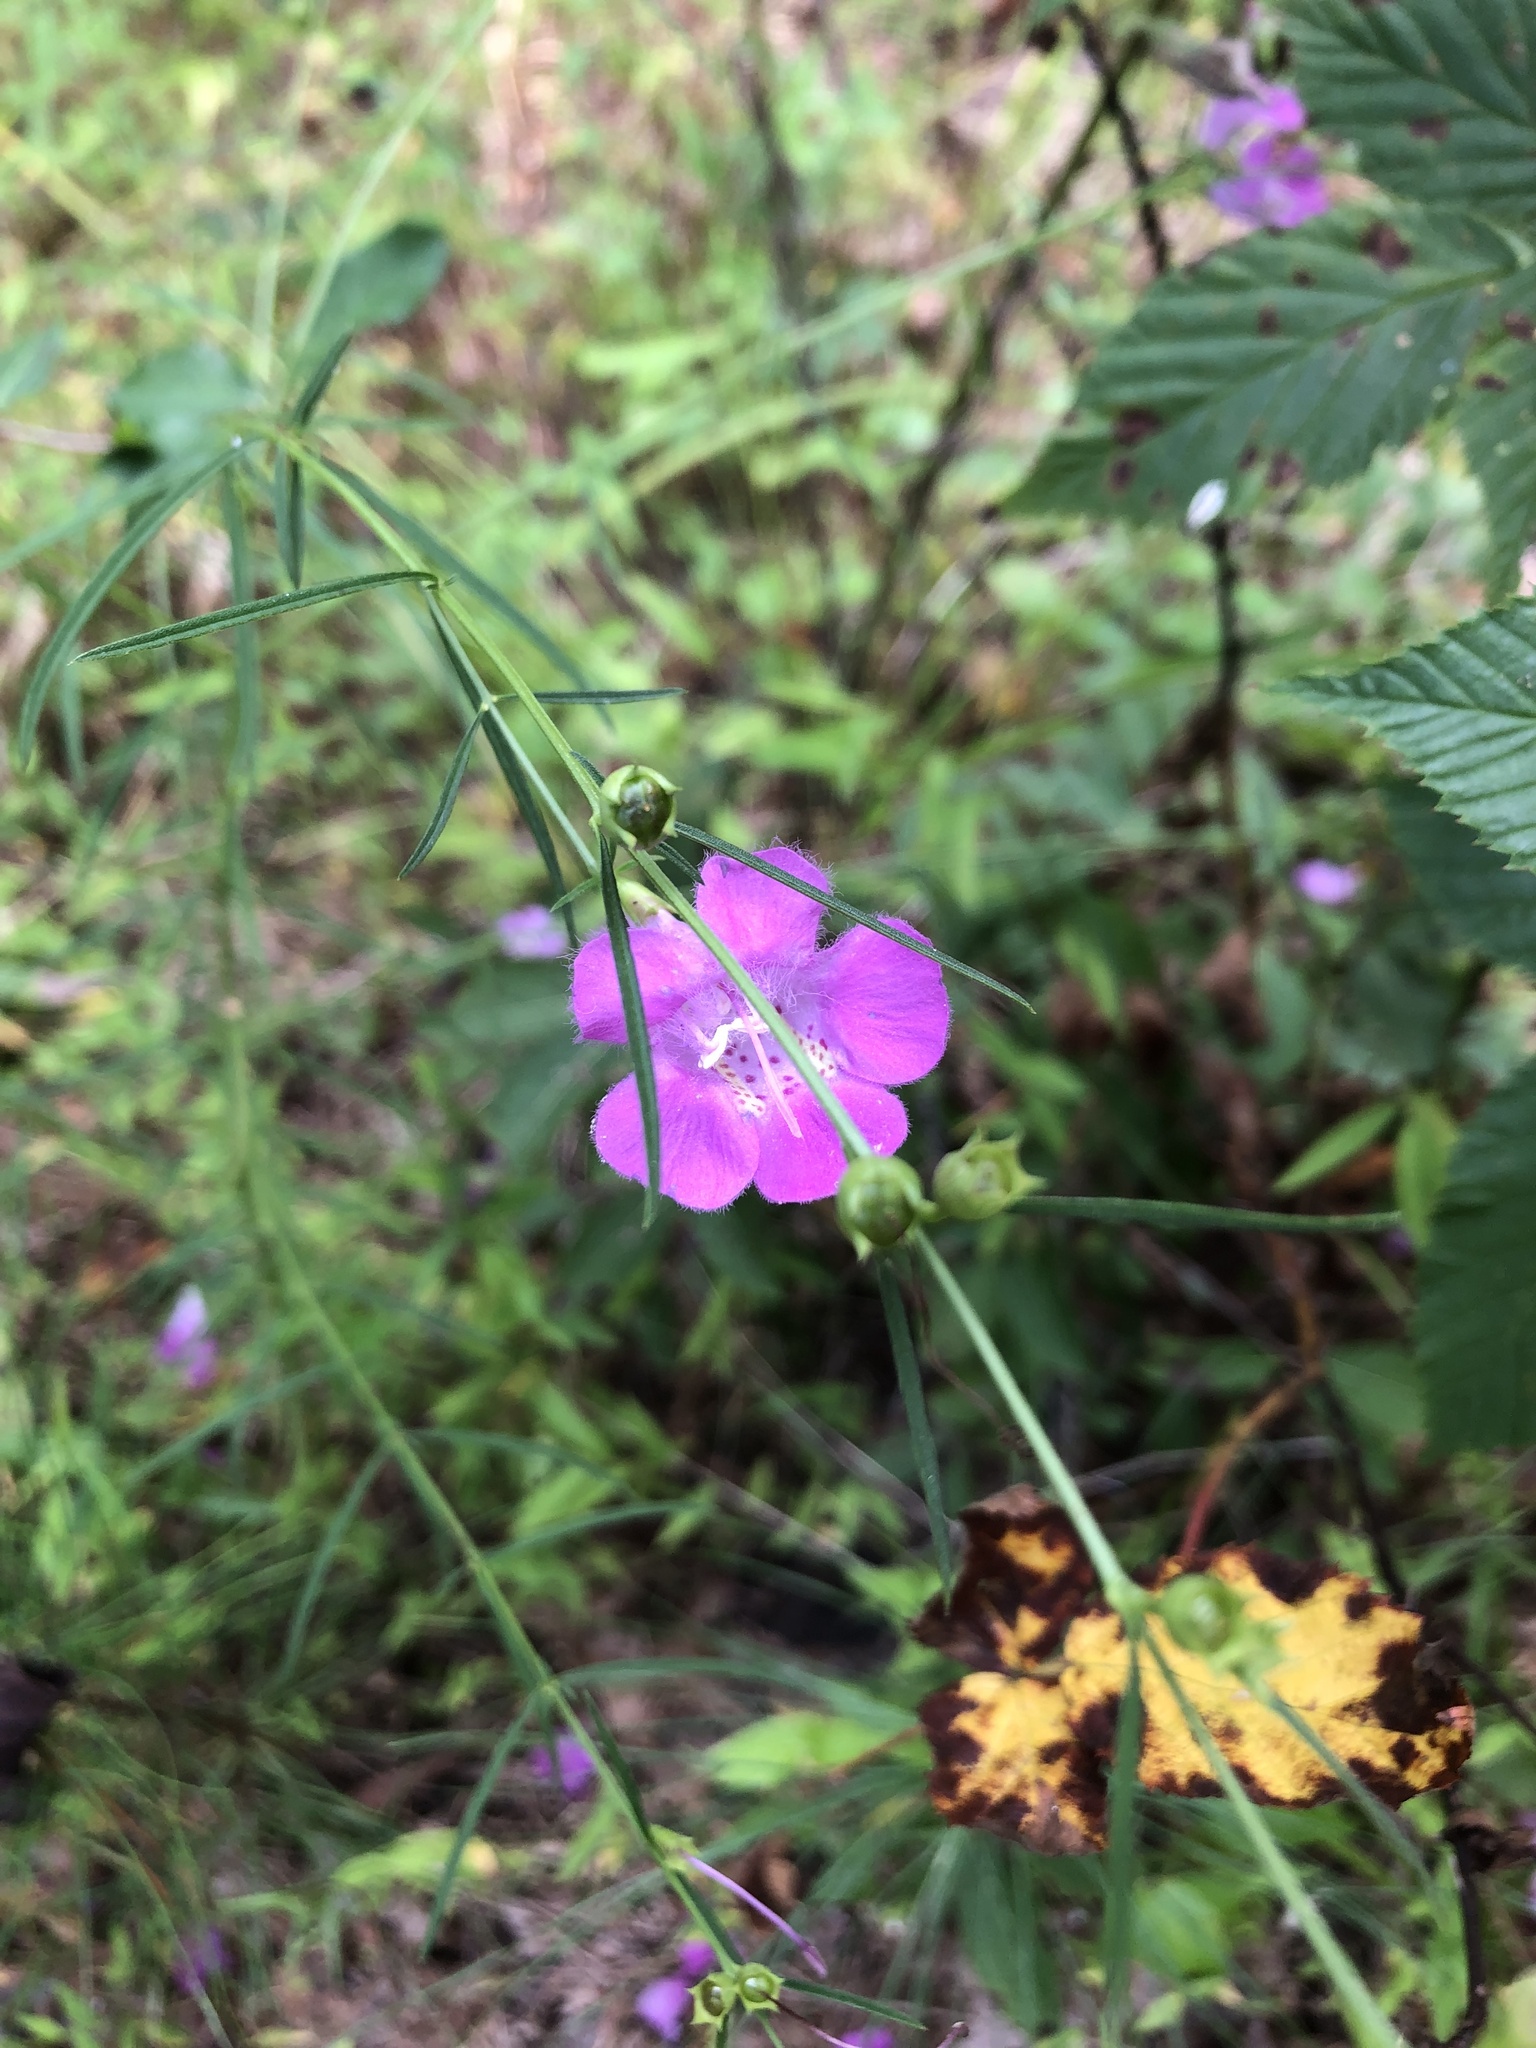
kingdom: Plantae
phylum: Tracheophyta
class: Magnoliopsida
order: Lamiales
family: Orobanchaceae
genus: Agalinis
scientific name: Agalinis purpurea
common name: Purple false foxglove
